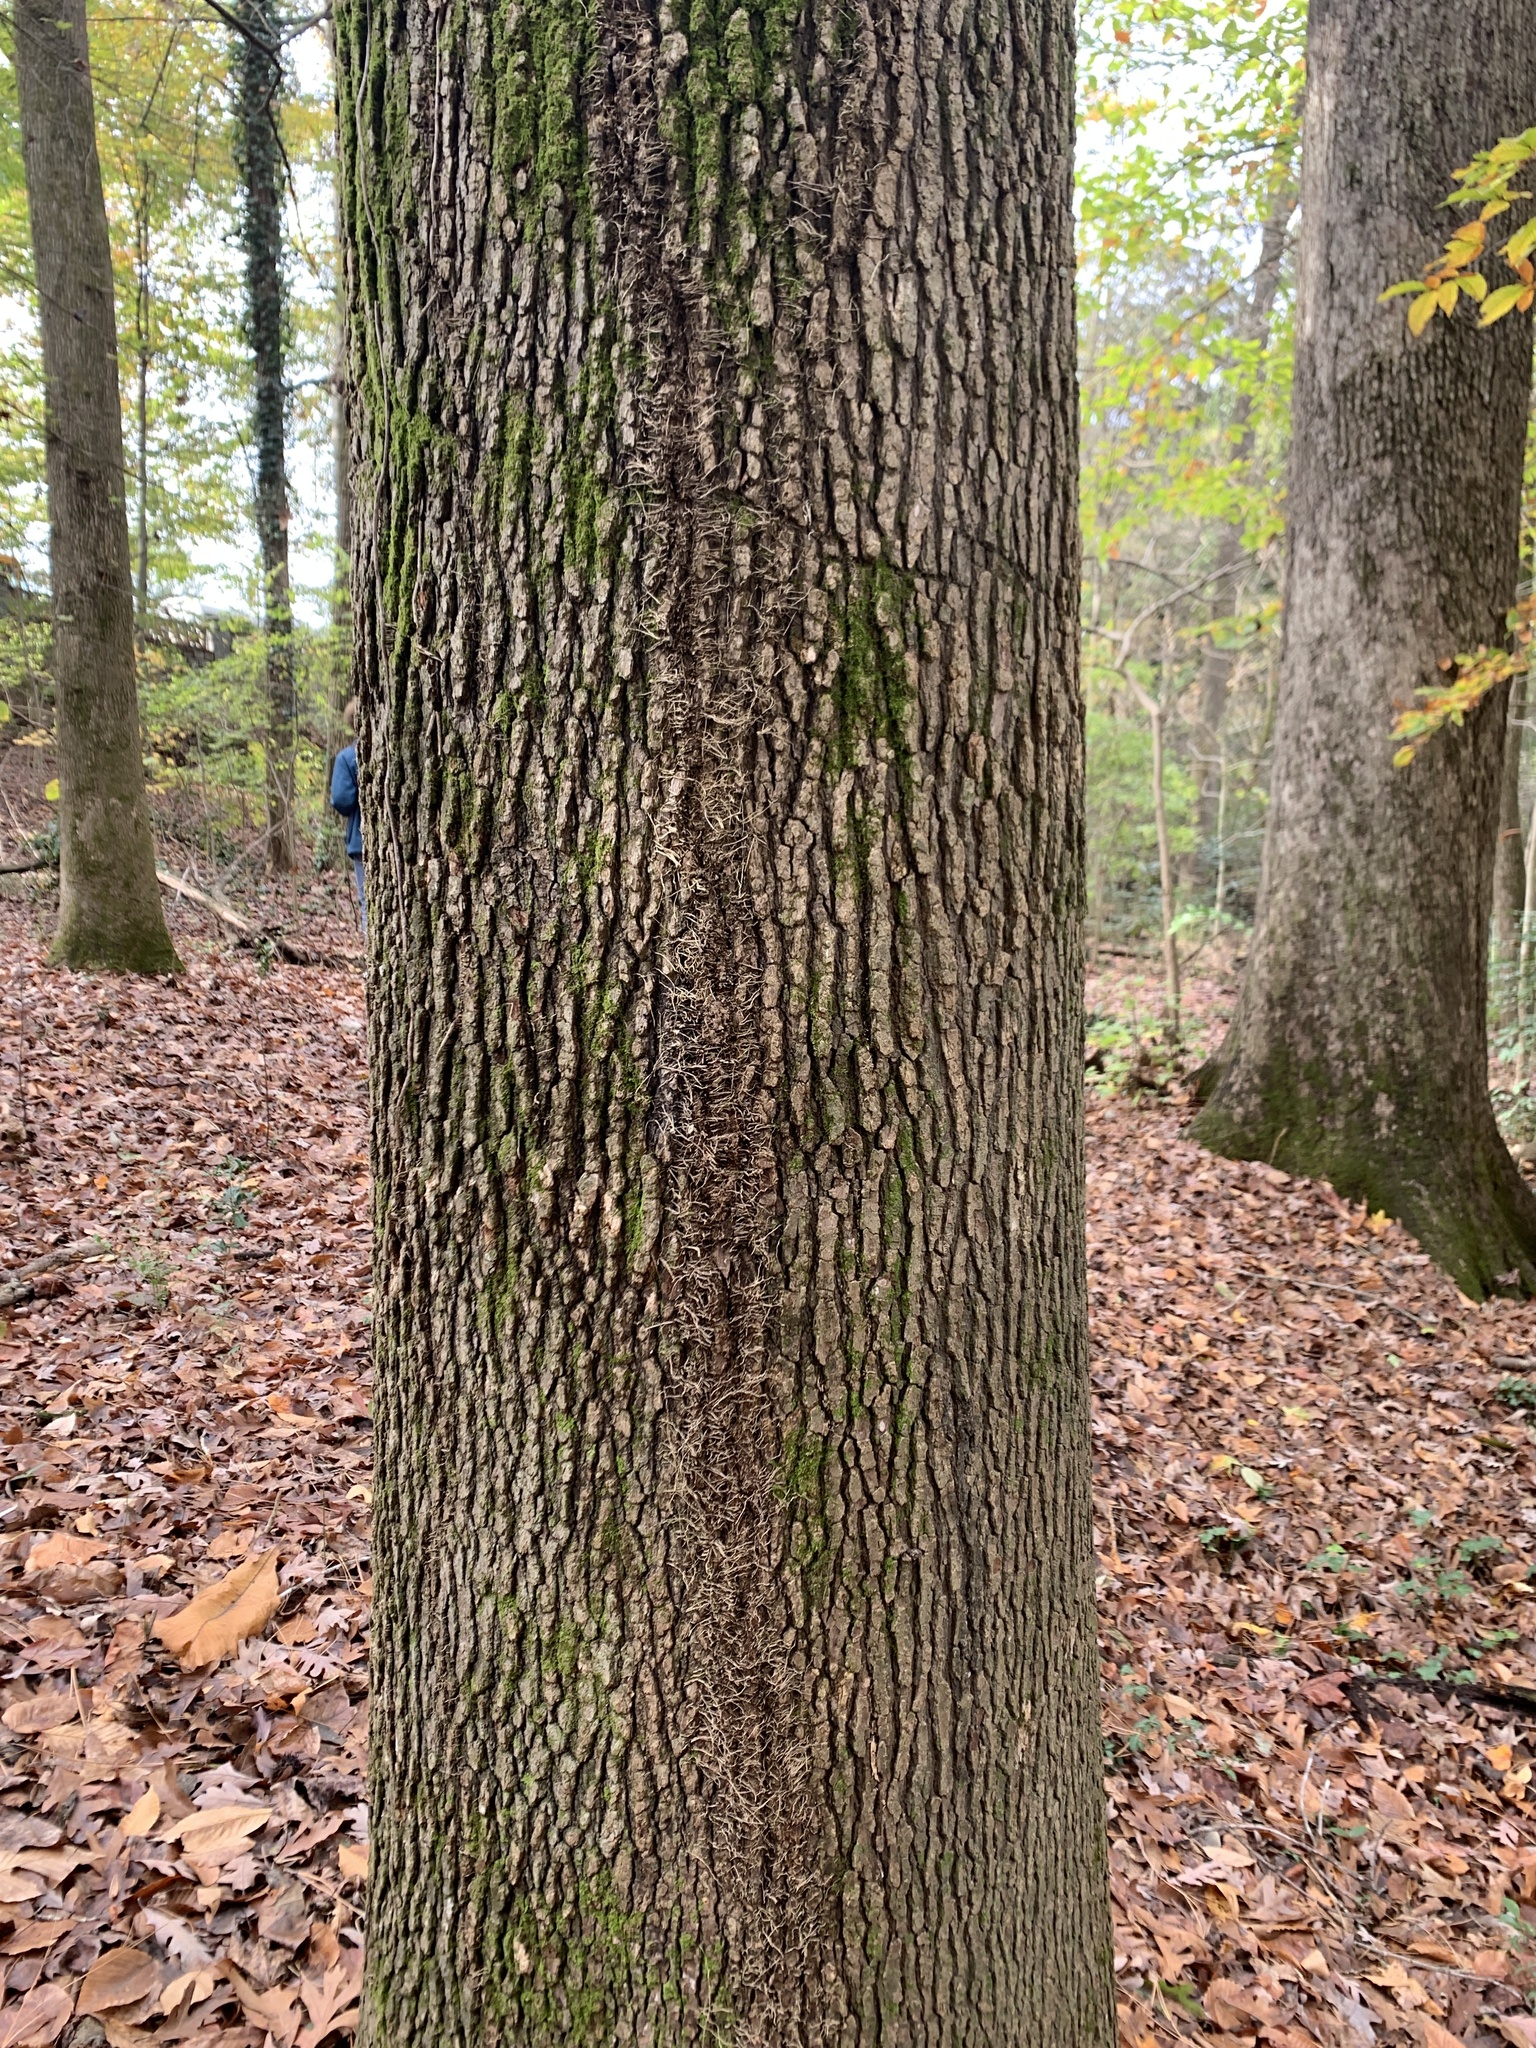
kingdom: Plantae
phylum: Tracheophyta
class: Magnoliopsida
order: Sapindales
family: Anacardiaceae
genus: Toxicodendron
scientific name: Toxicodendron radicans
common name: Poison ivy
